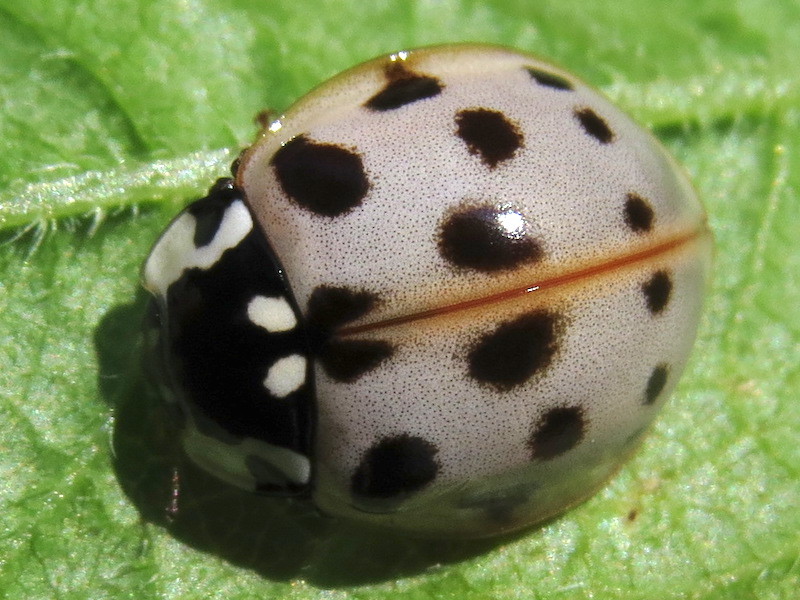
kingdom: Animalia
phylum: Arthropoda
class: Insecta
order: Coleoptera
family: Coccinellidae
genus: Anatis
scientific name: Anatis labiculata
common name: Fifteen-spotted lady beetle
